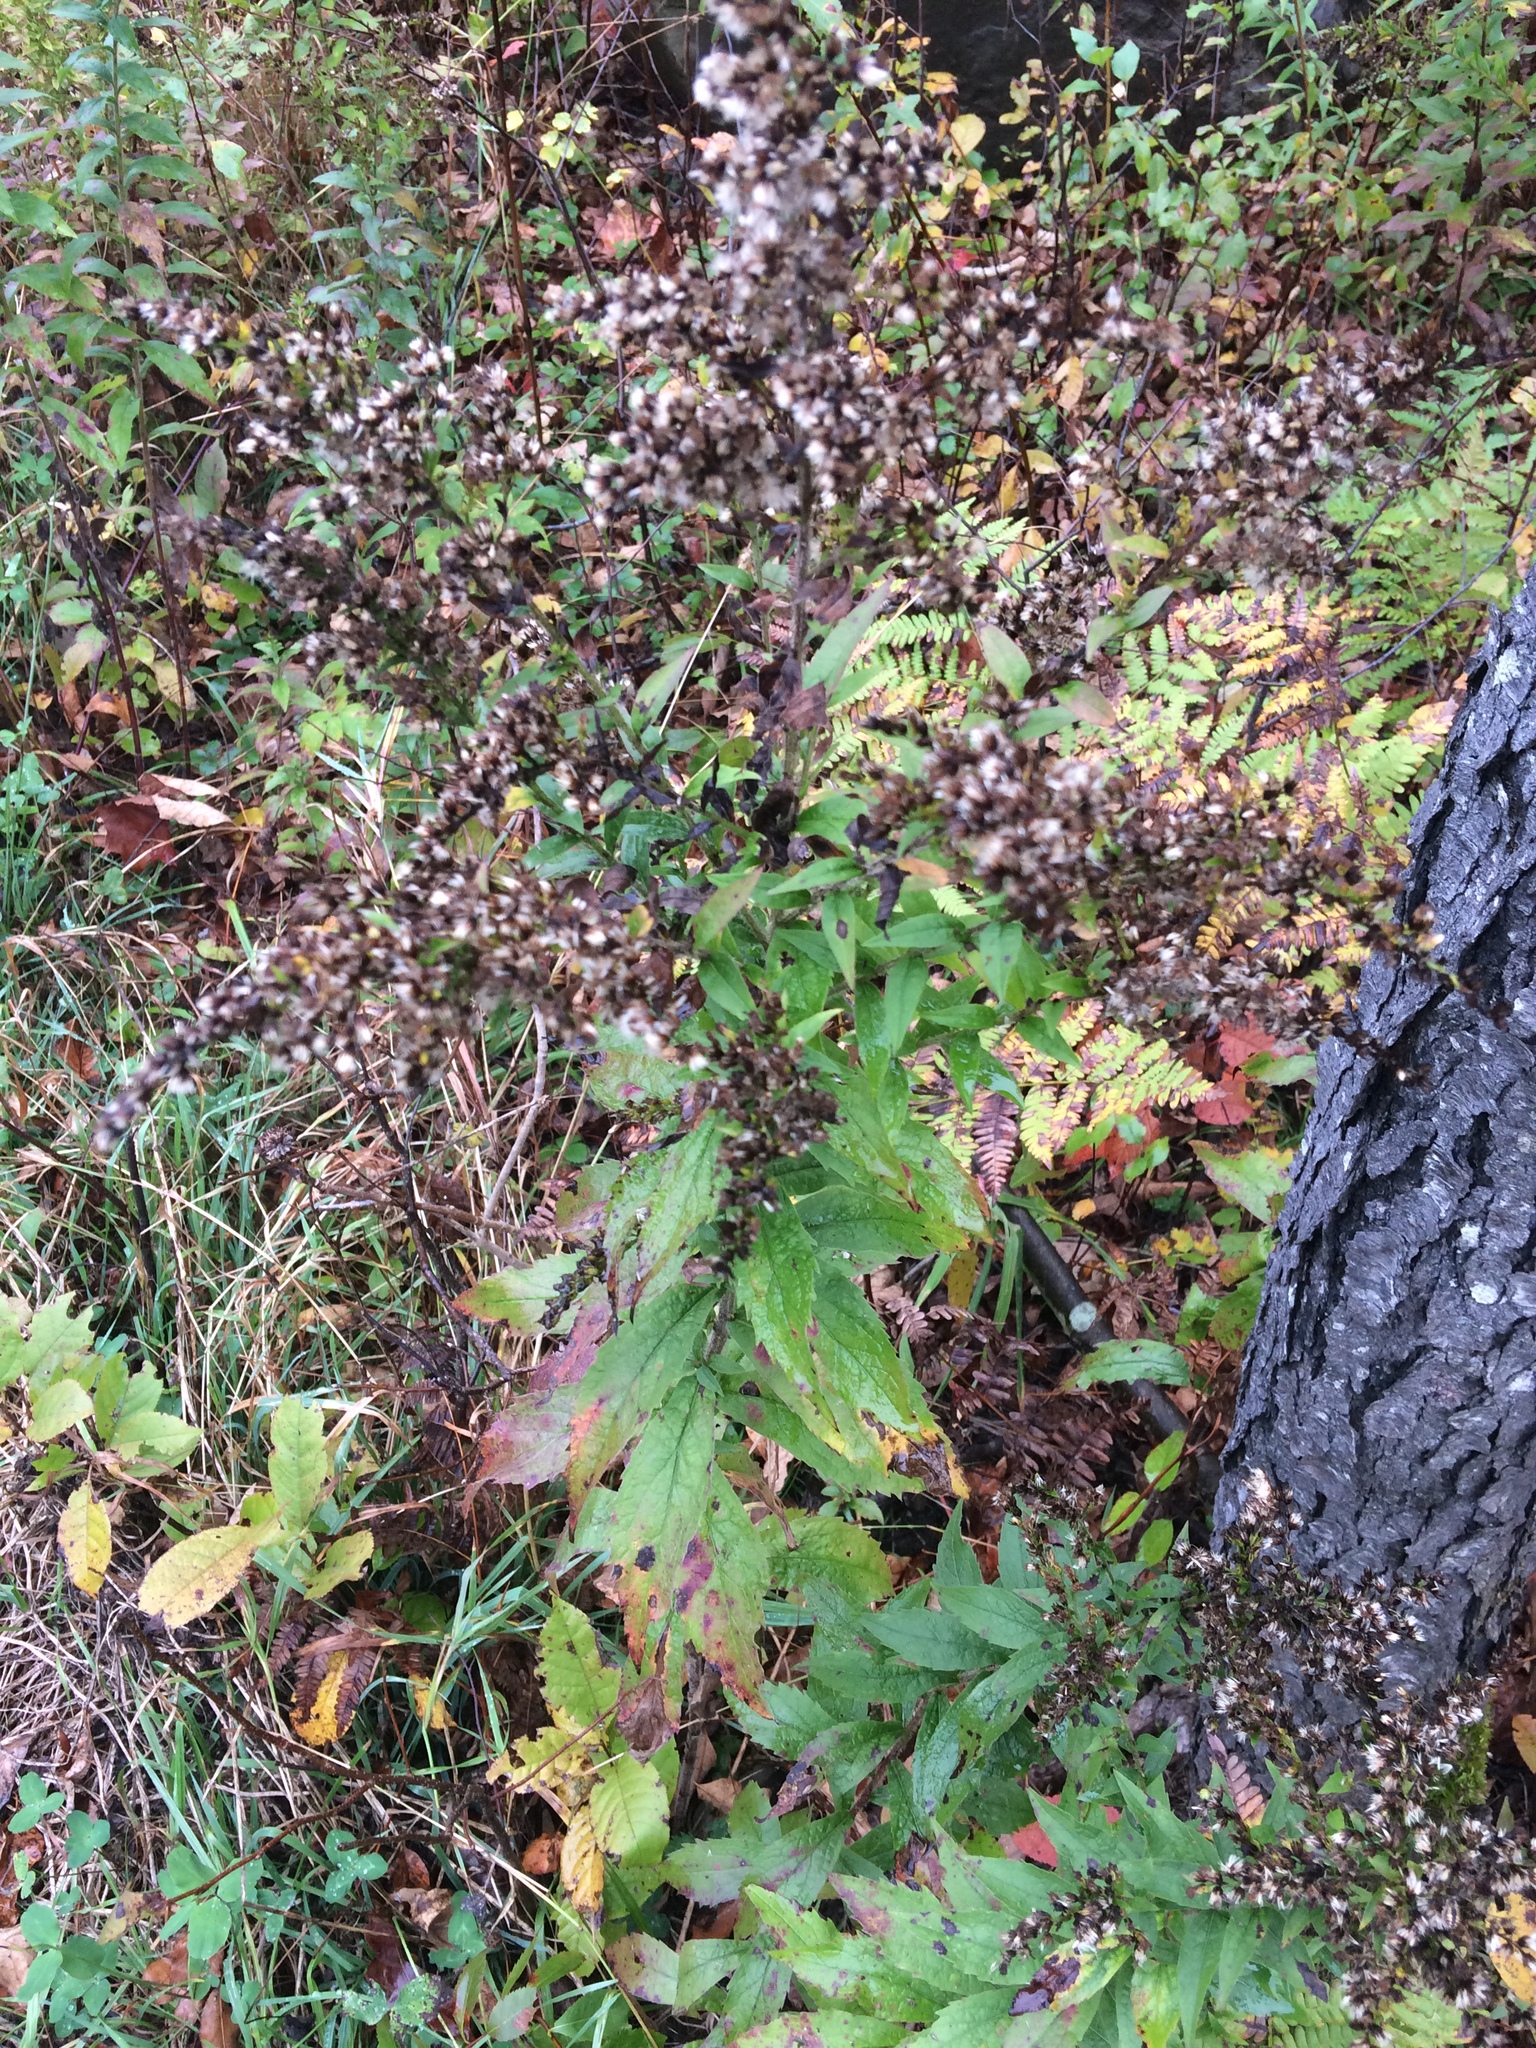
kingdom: Plantae
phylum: Tracheophyta
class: Magnoliopsida
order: Asterales
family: Asteraceae
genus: Solidago
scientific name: Solidago rugosa
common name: Rough-stemmed goldenrod
